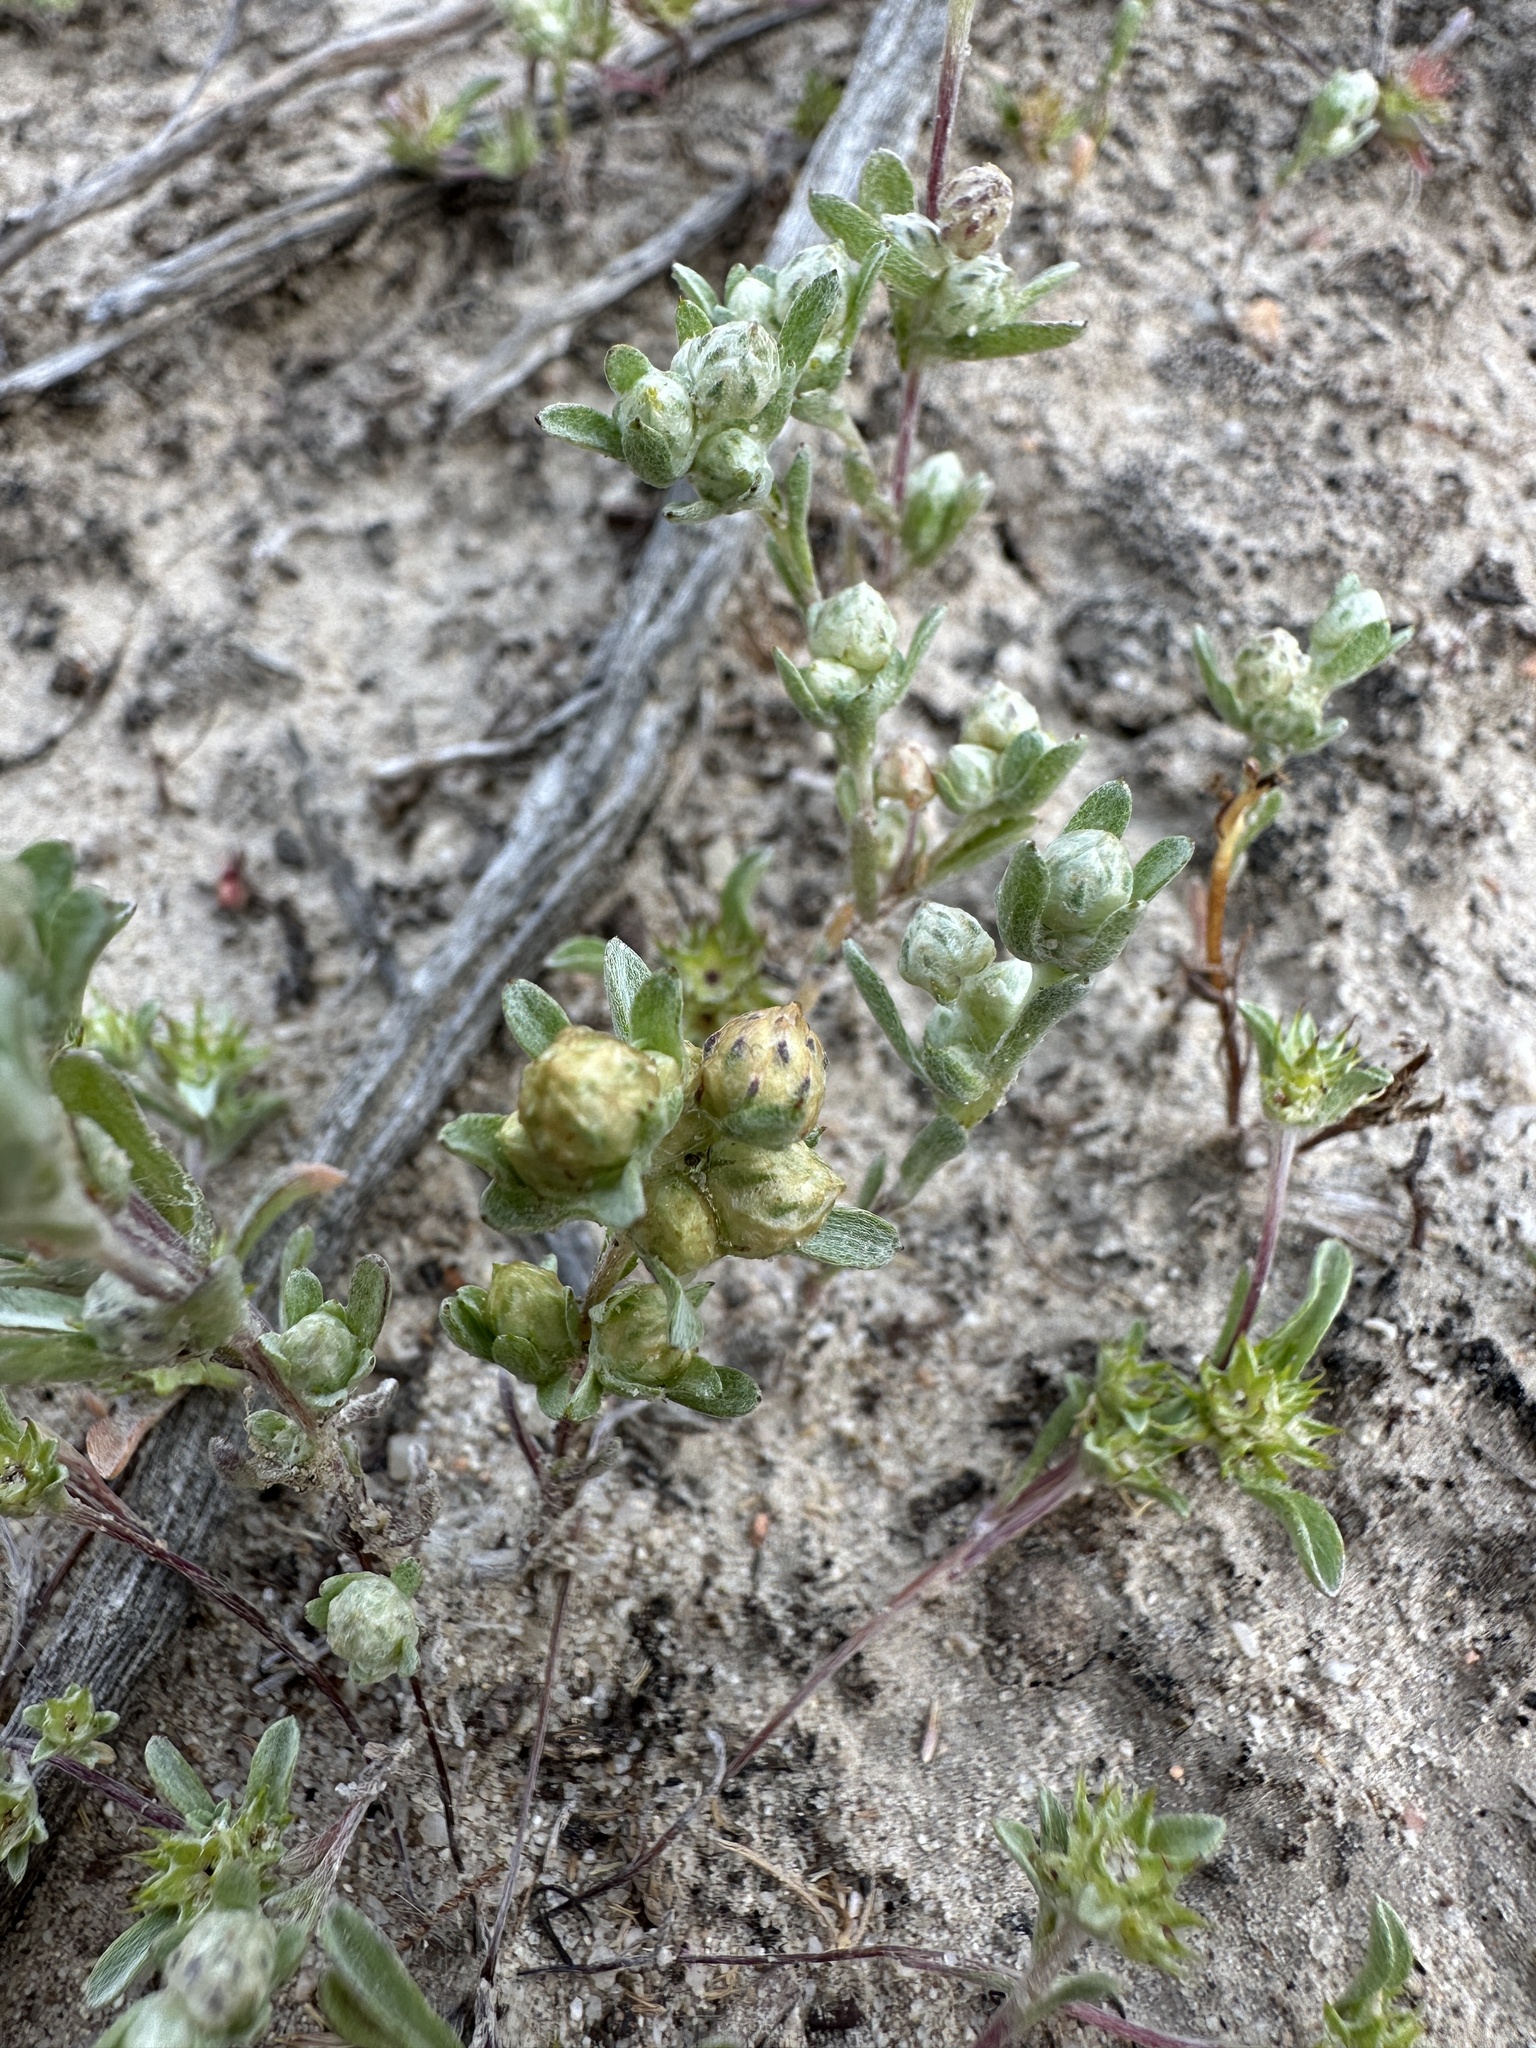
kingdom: Plantae
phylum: Tracheophyta
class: Magnoliopsida
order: Asterales
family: Asteraceae
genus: Stylocline
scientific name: Stylocline gnaphaloides
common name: Everlasting nest-straw
